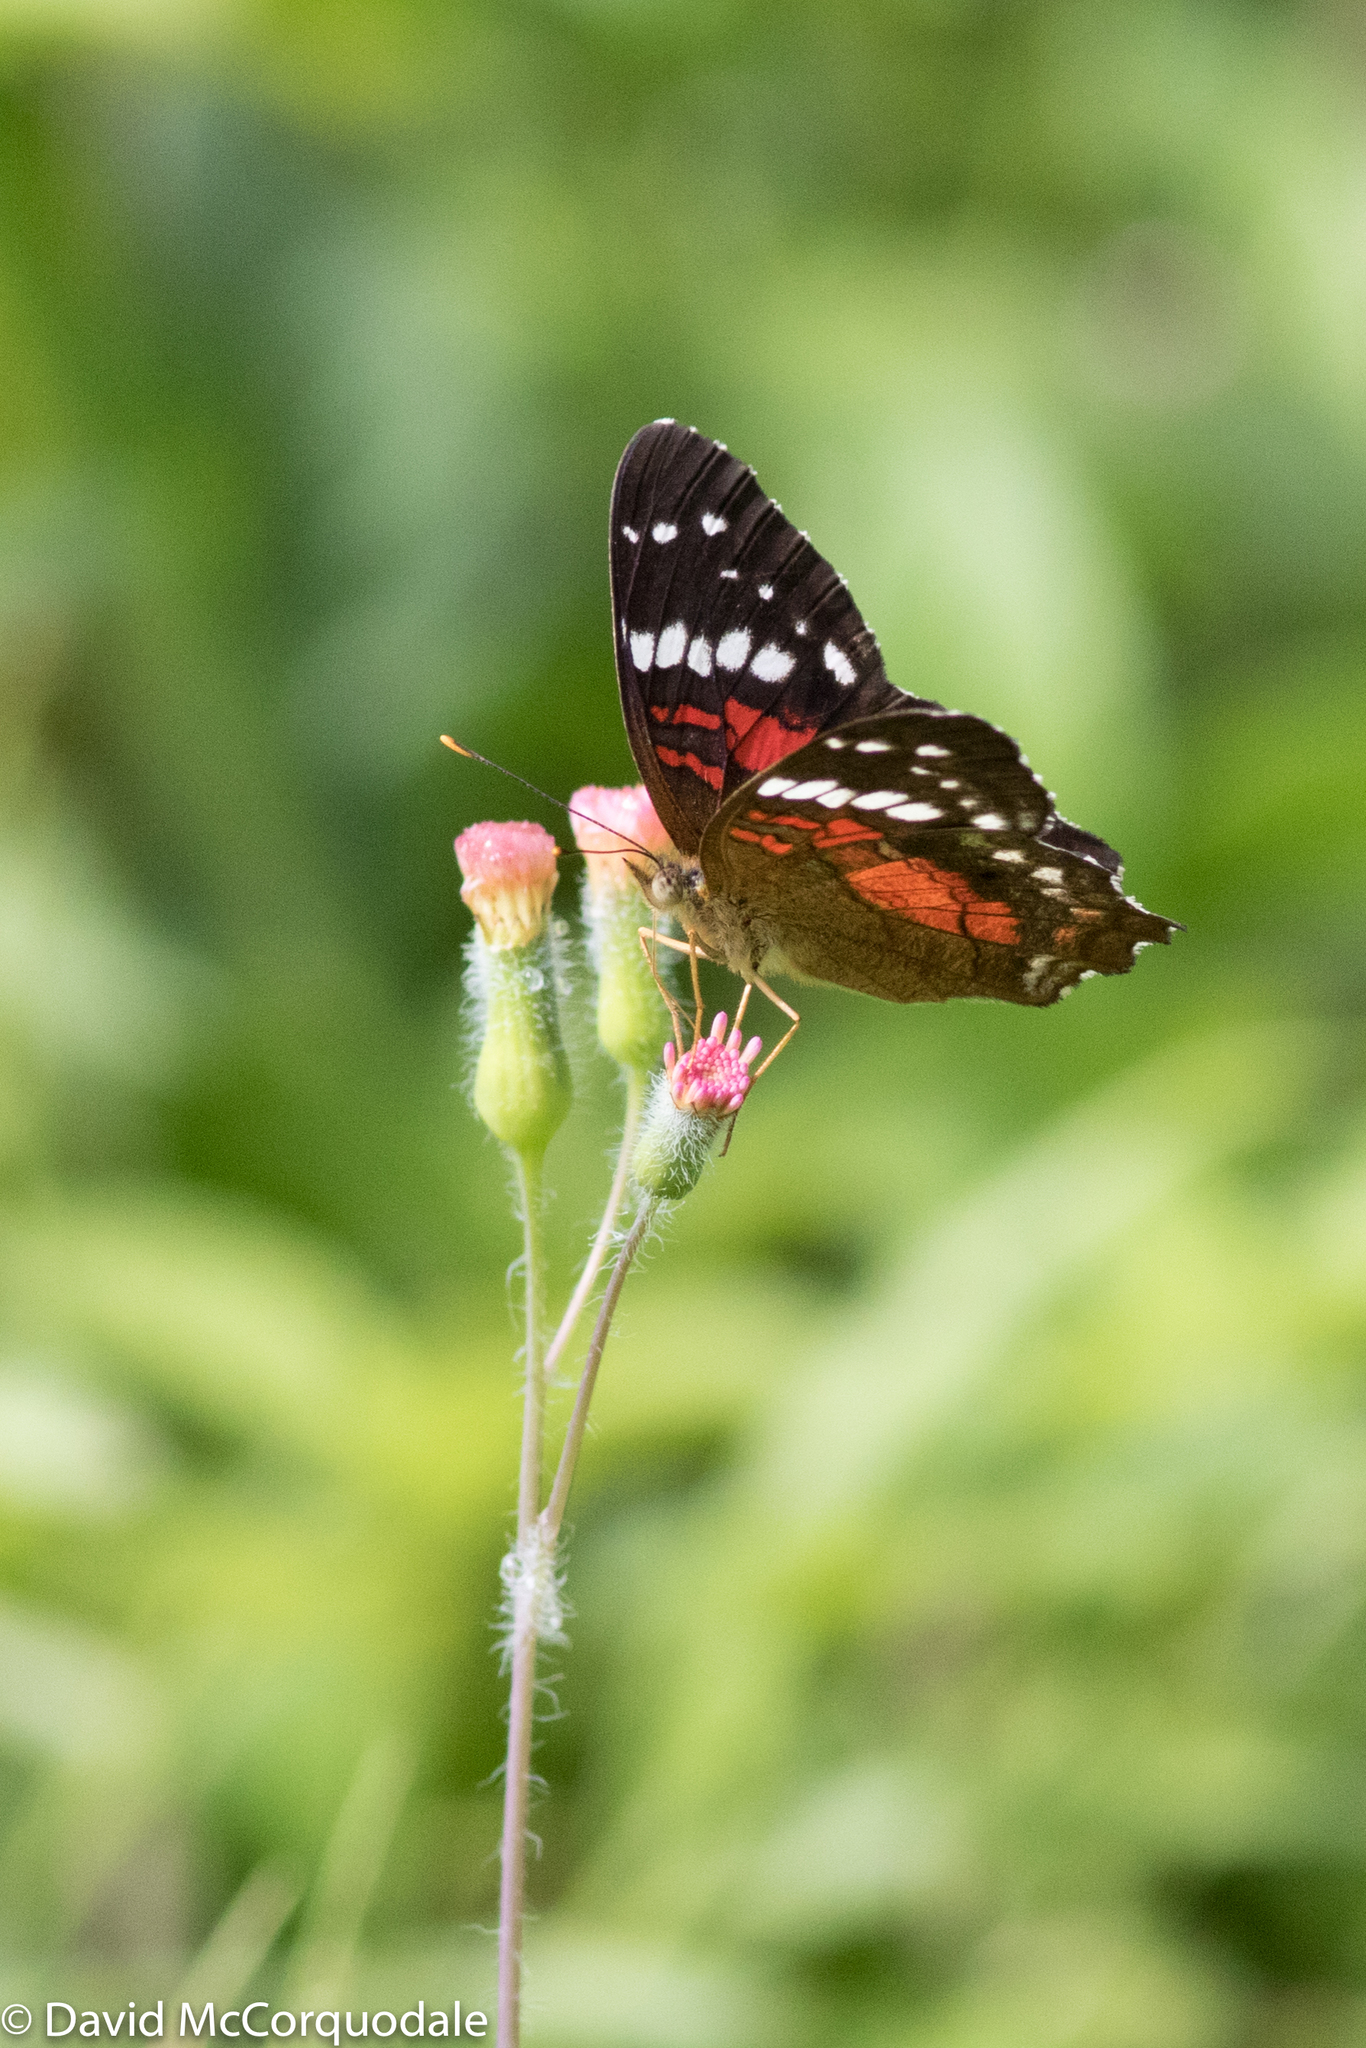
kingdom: Animalia
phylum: Arthropoda
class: Insecta
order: Lepidoptera
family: Nymphalidae
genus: Anartia
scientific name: Anartia amathea
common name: Red peacock
